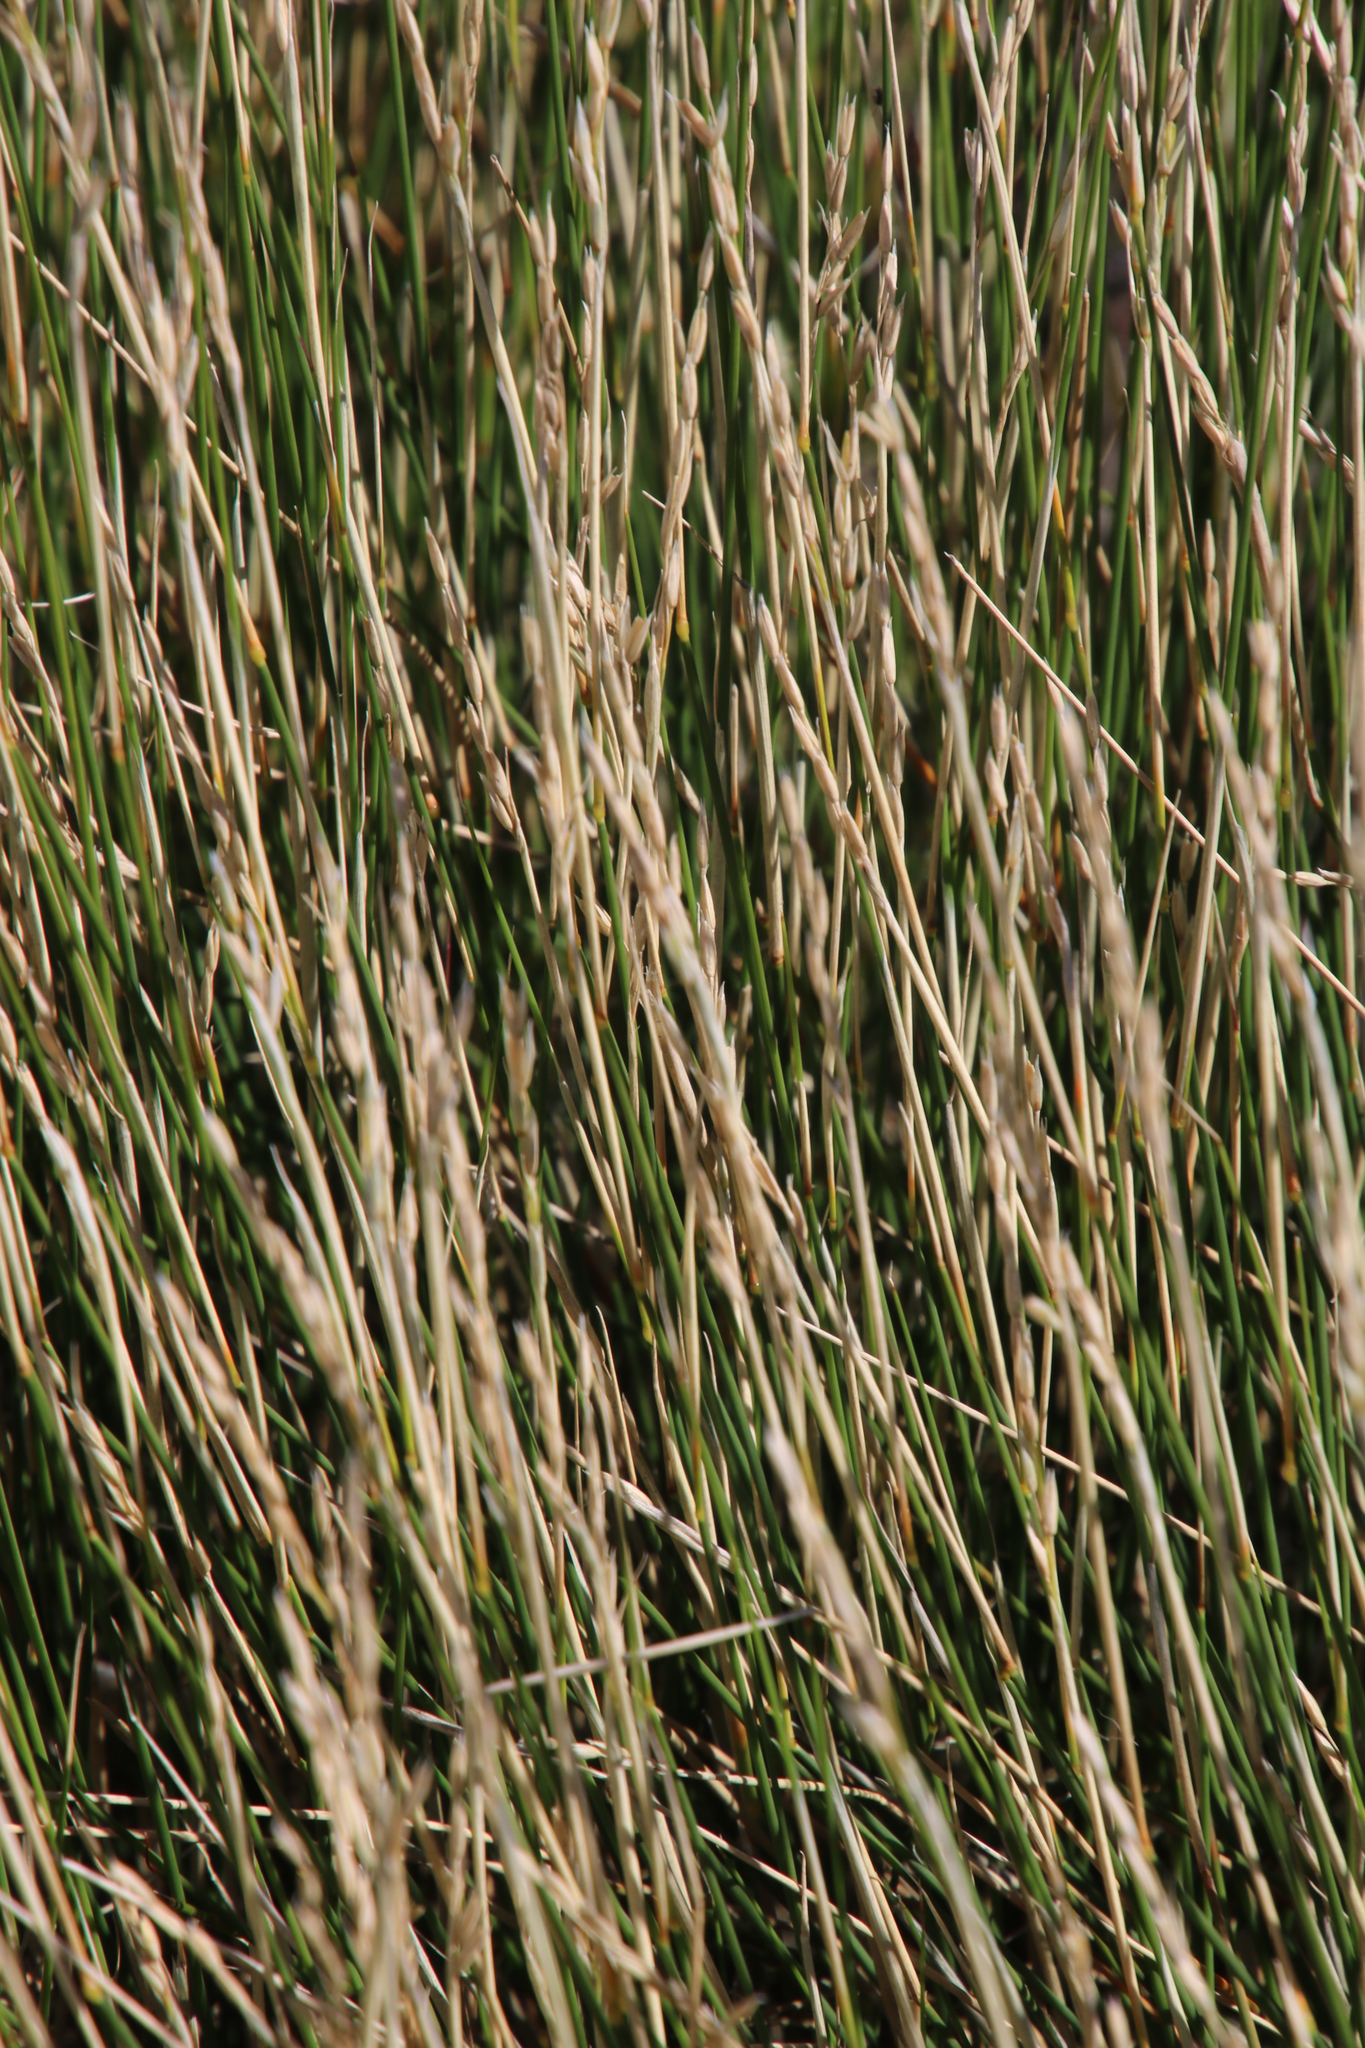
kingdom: Plantae
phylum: Tracheophyta
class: Liliopsida
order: Poales
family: Poaceae
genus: Ehrharta
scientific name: Ehrharta ramosa
